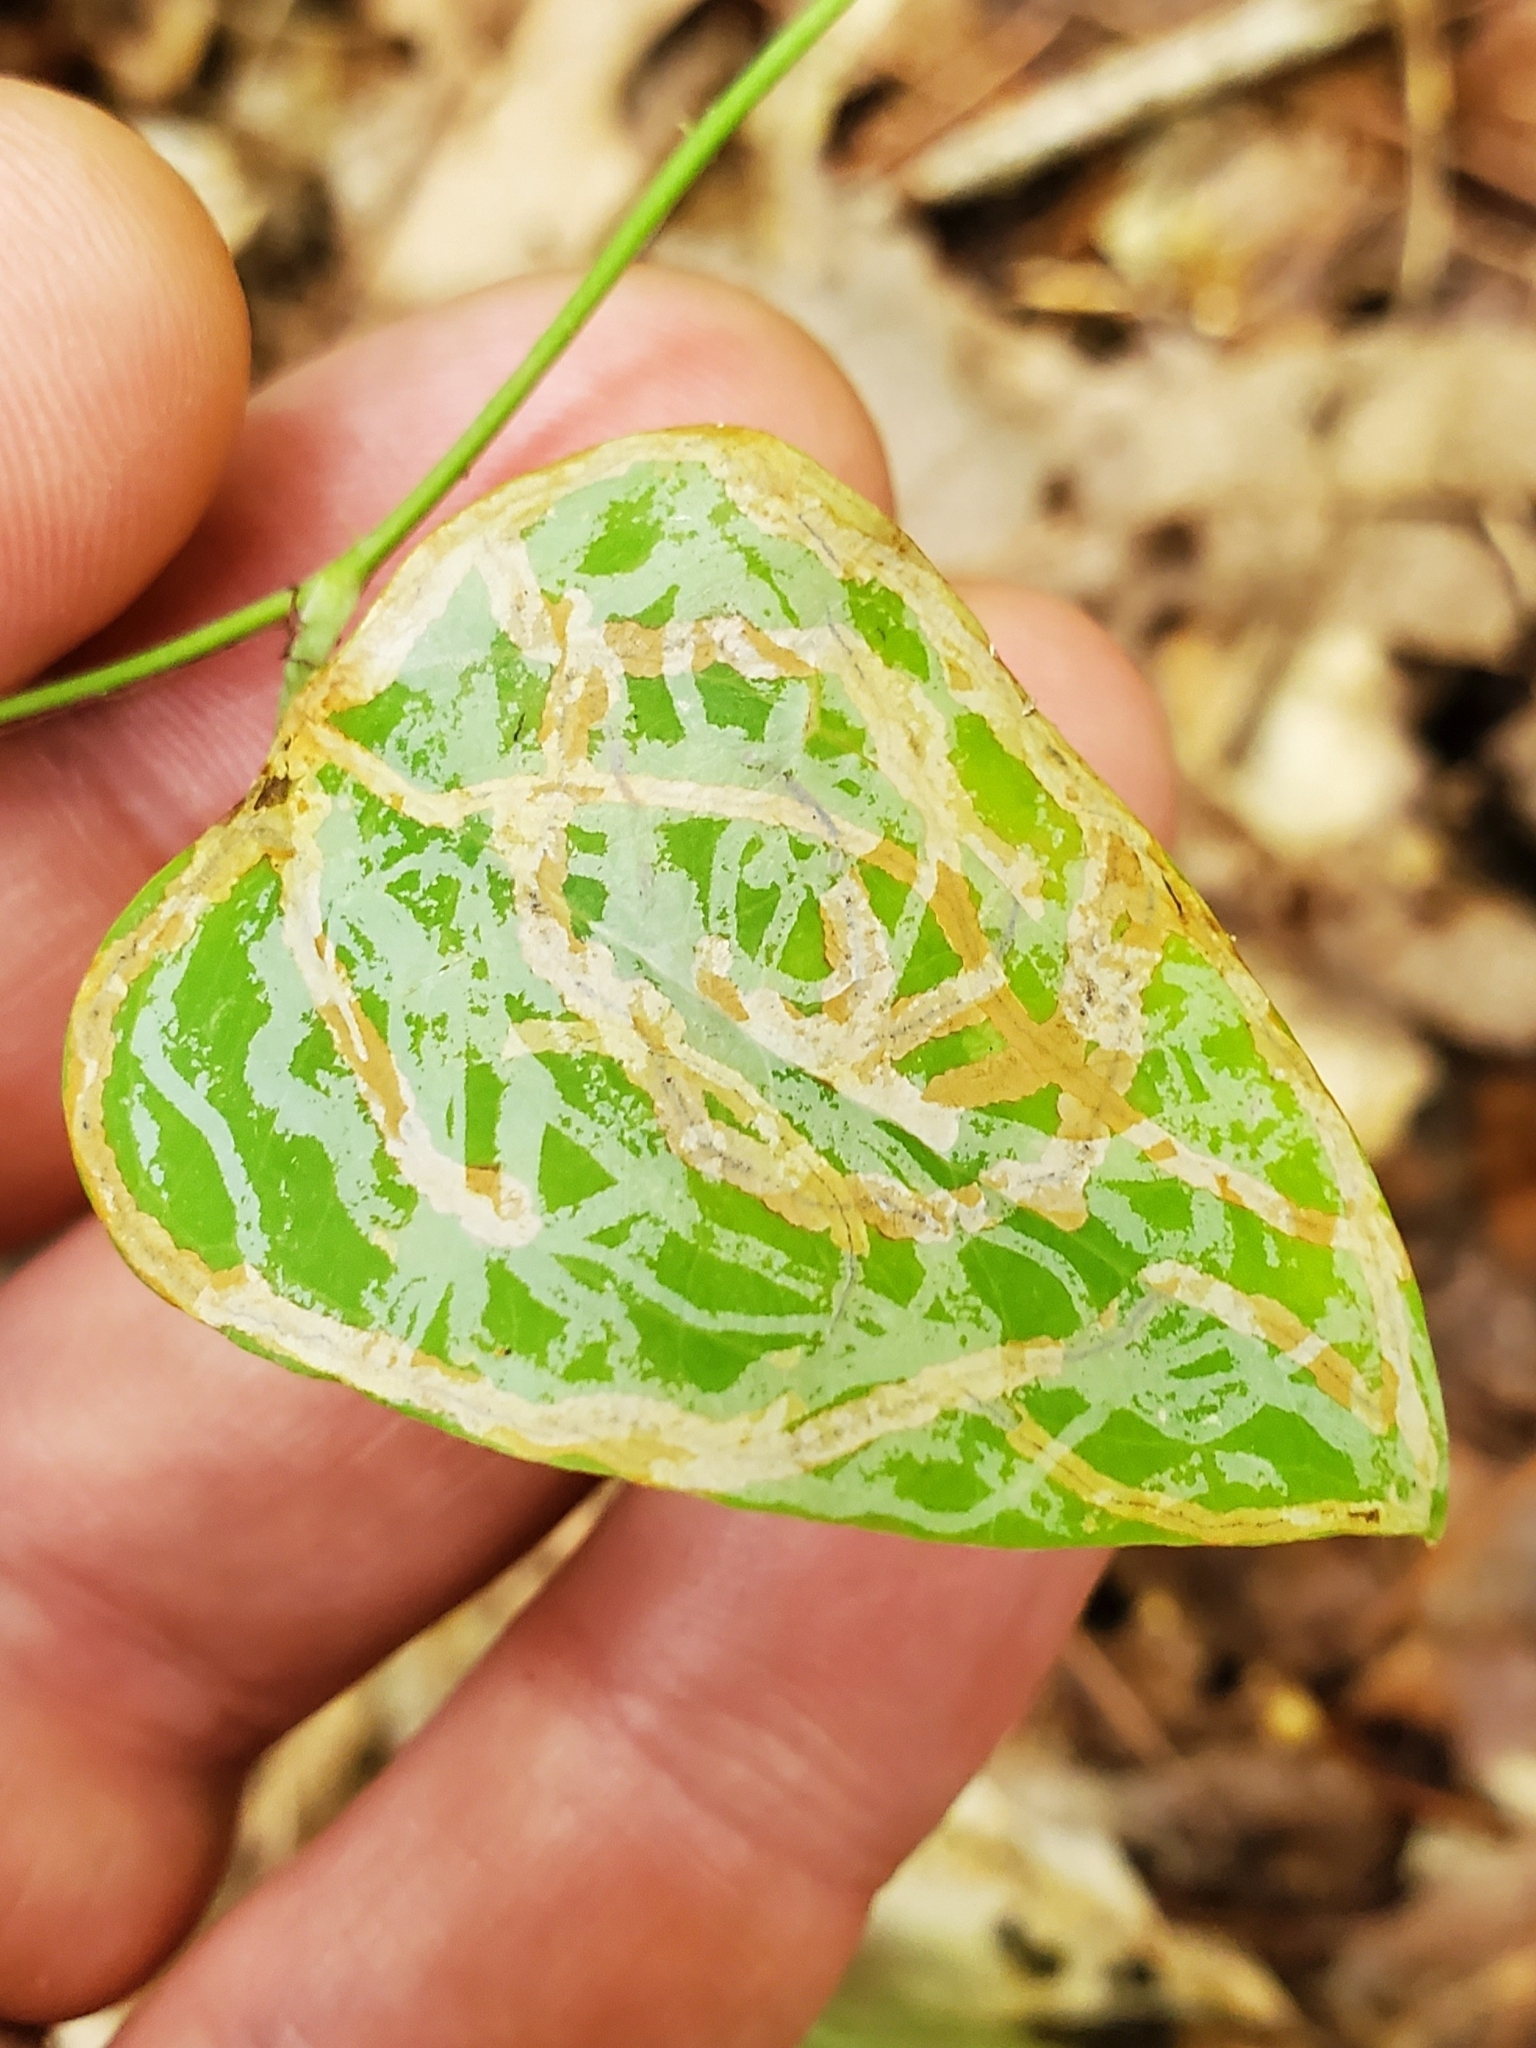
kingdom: Animalia
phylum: Arthropoda
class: Insecta
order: Lepidoptera
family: Gracillariidae
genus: Marmara
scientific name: Marmara smilacisella
